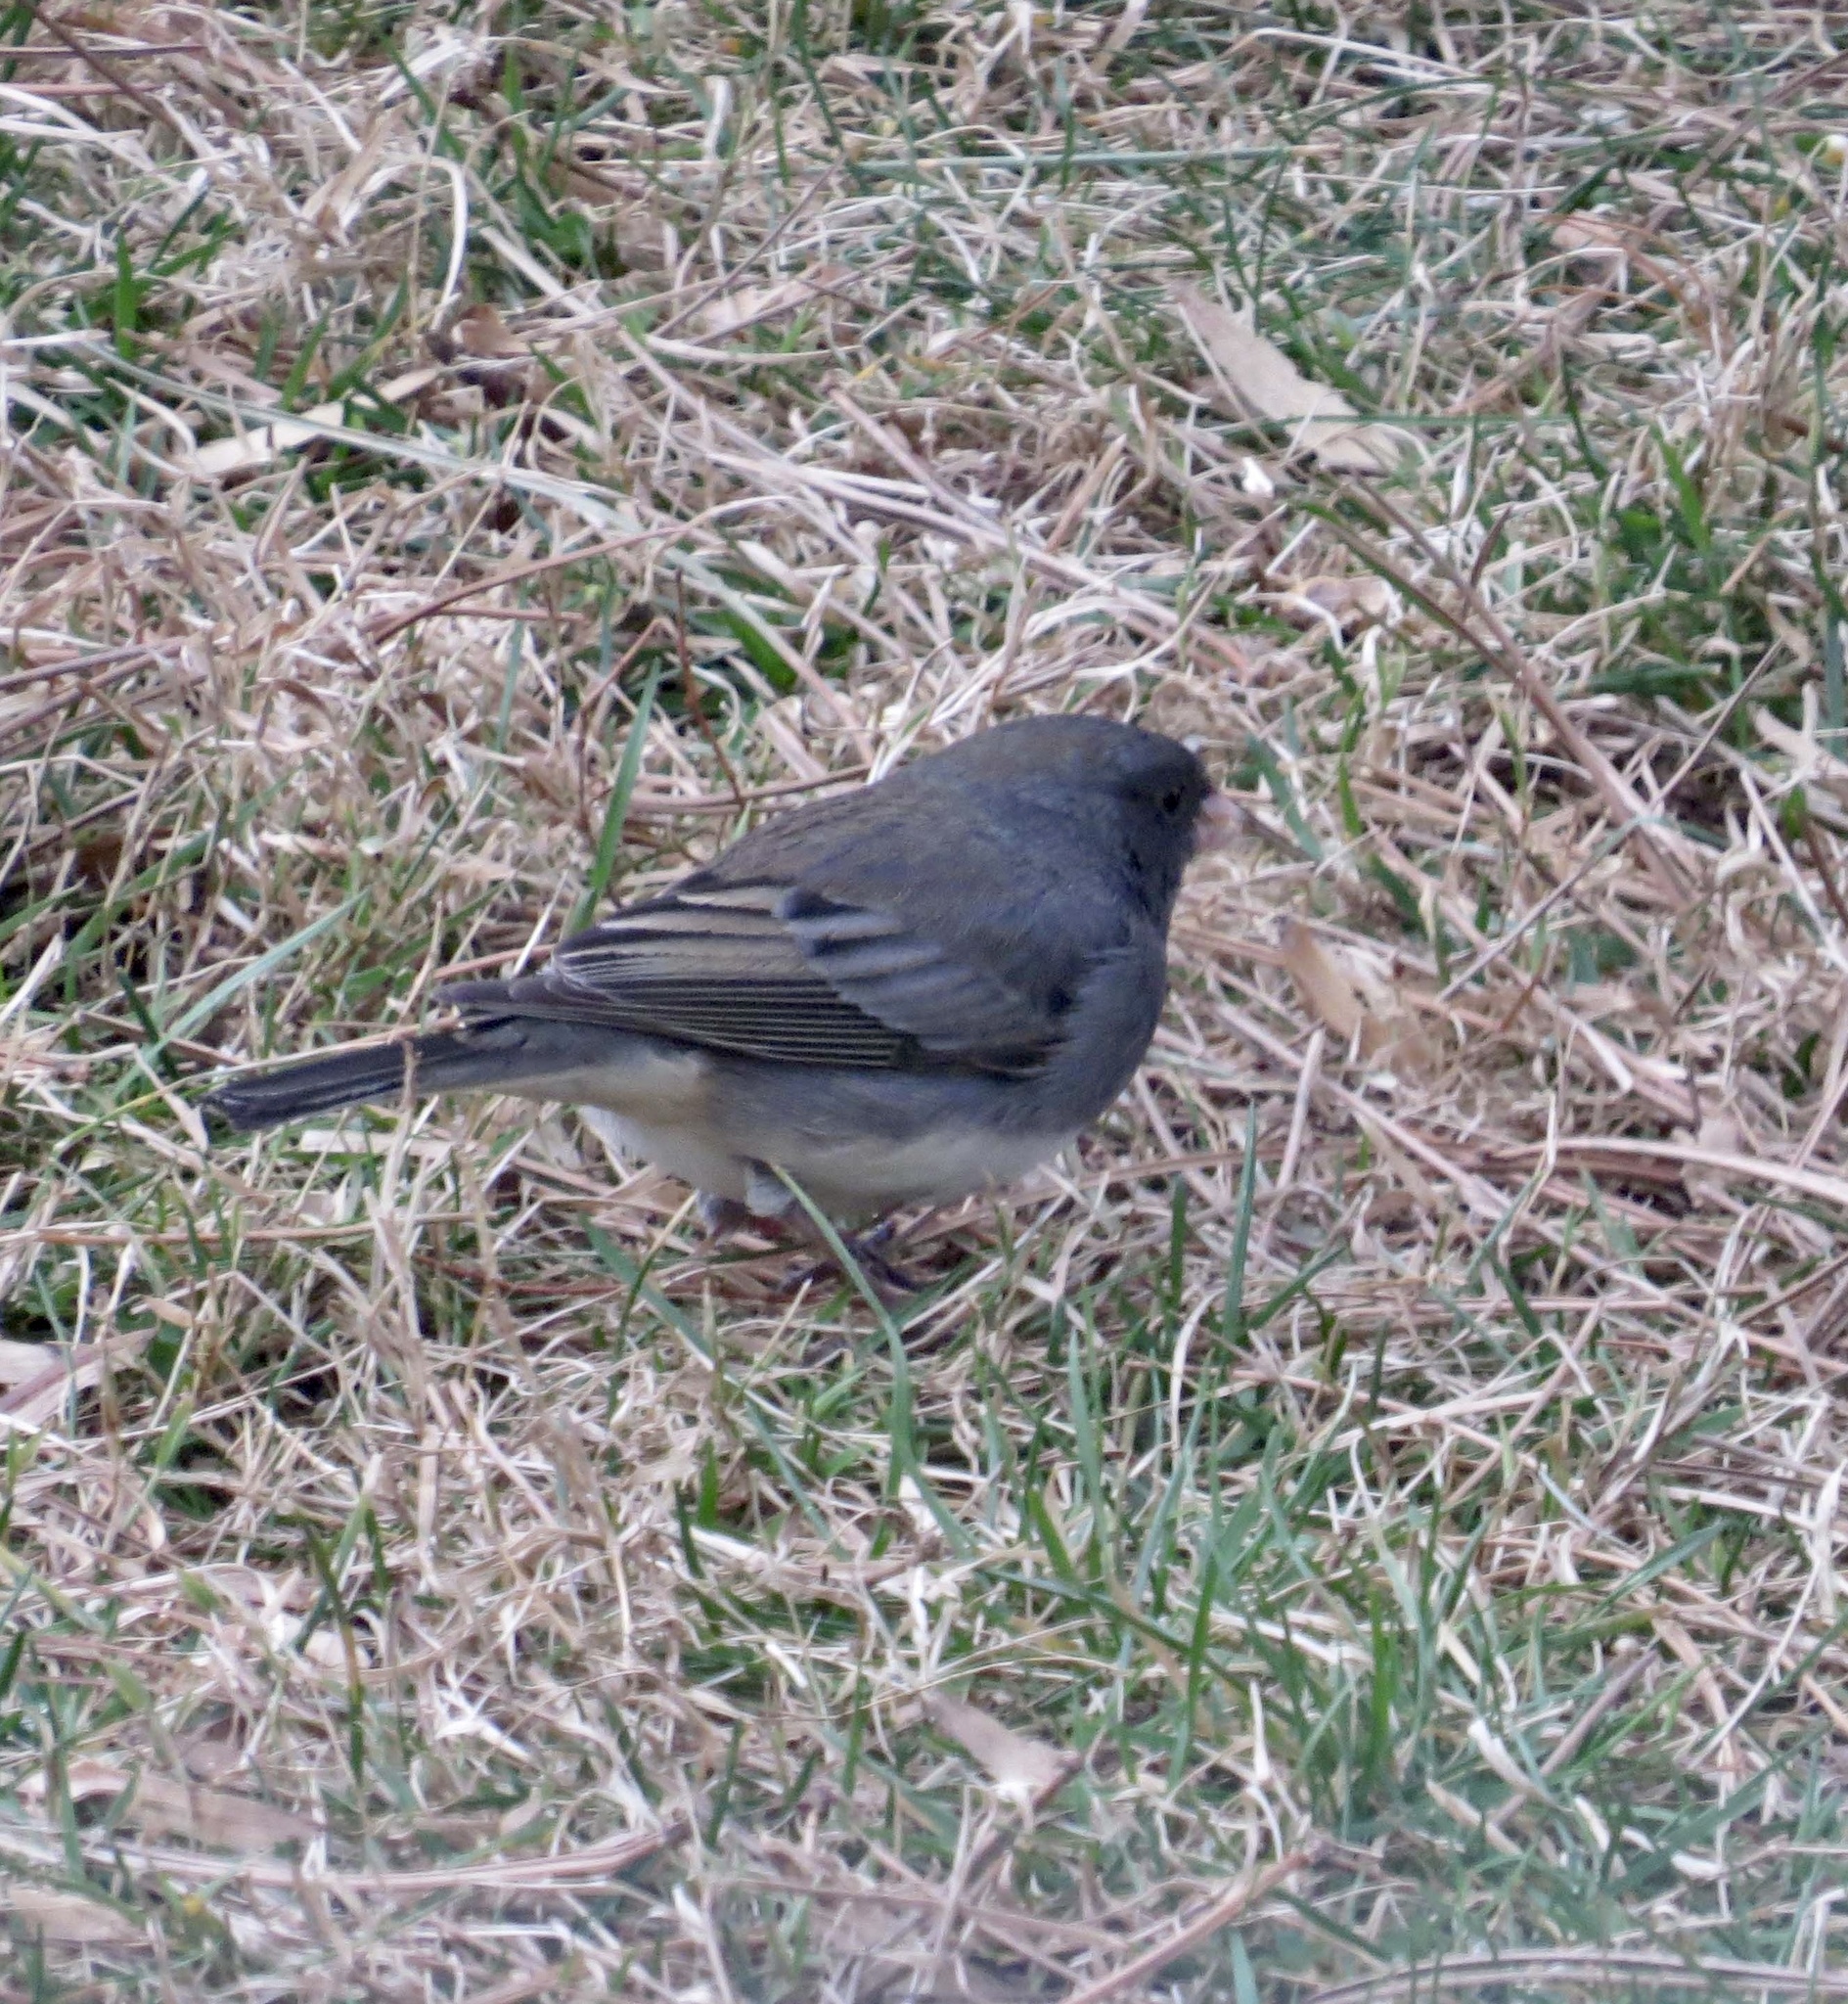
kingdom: Animalia
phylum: Chordata
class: Aves
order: Passeriformes
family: Passerellidae
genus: Junco
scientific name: Junco hyemalis
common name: Dark-eyed junco
